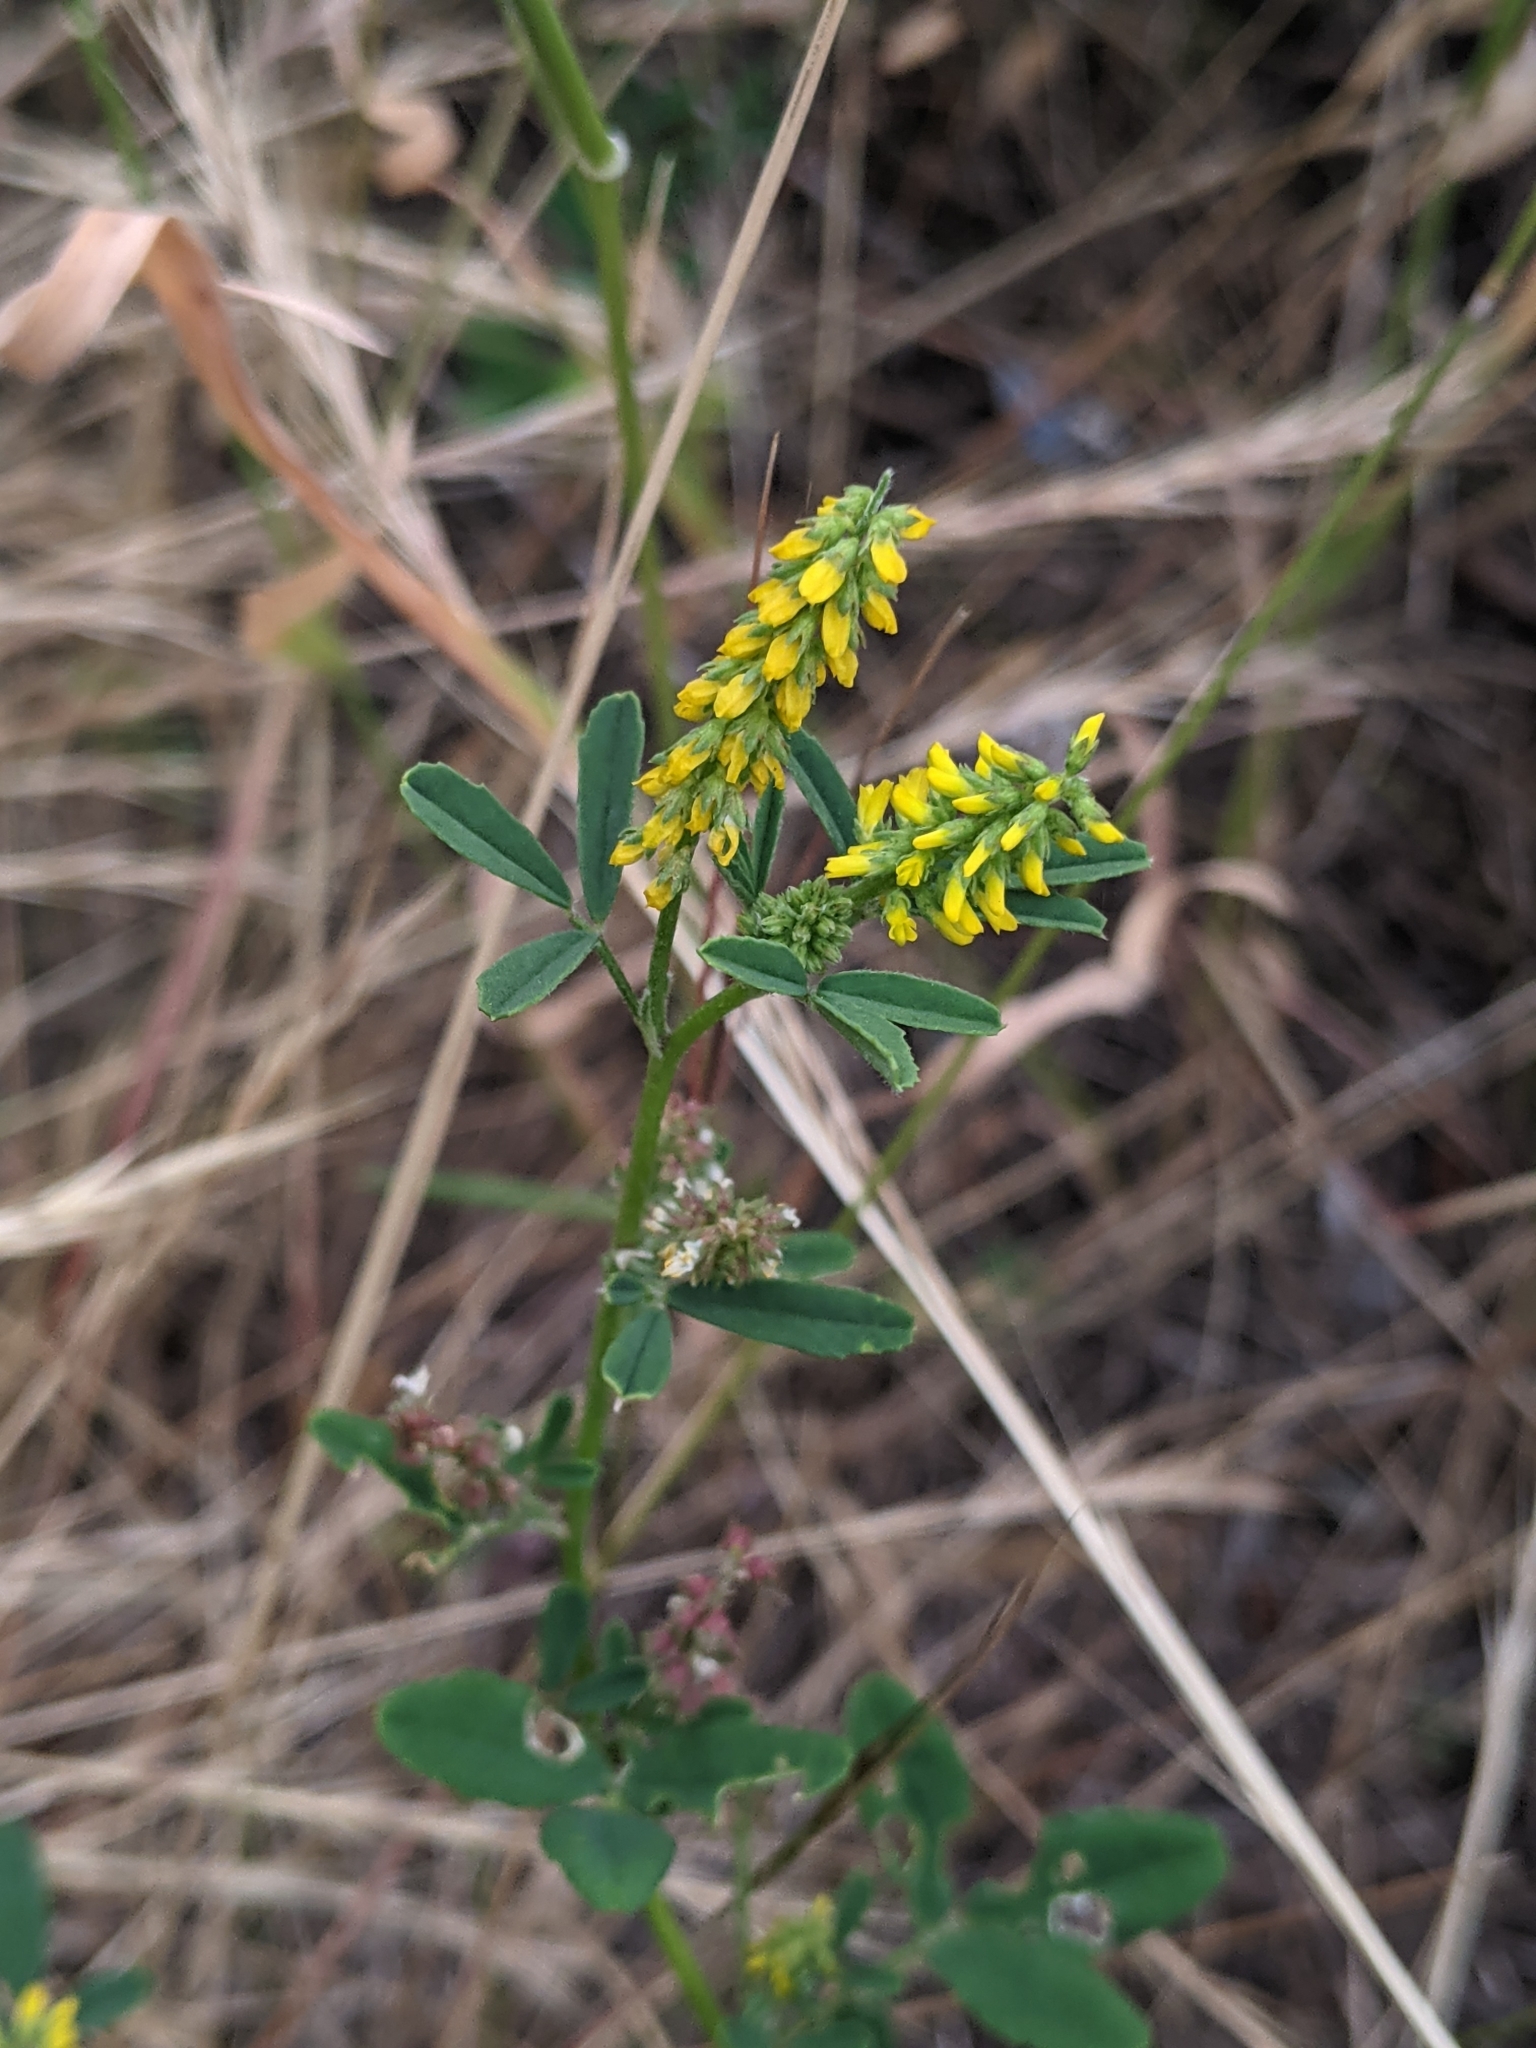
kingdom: Plantae
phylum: Tracheophyta
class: Magnoliopsida
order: Fabales
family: Fabaceae
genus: Melilotus
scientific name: Melilotus indicus
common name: Small melilot
